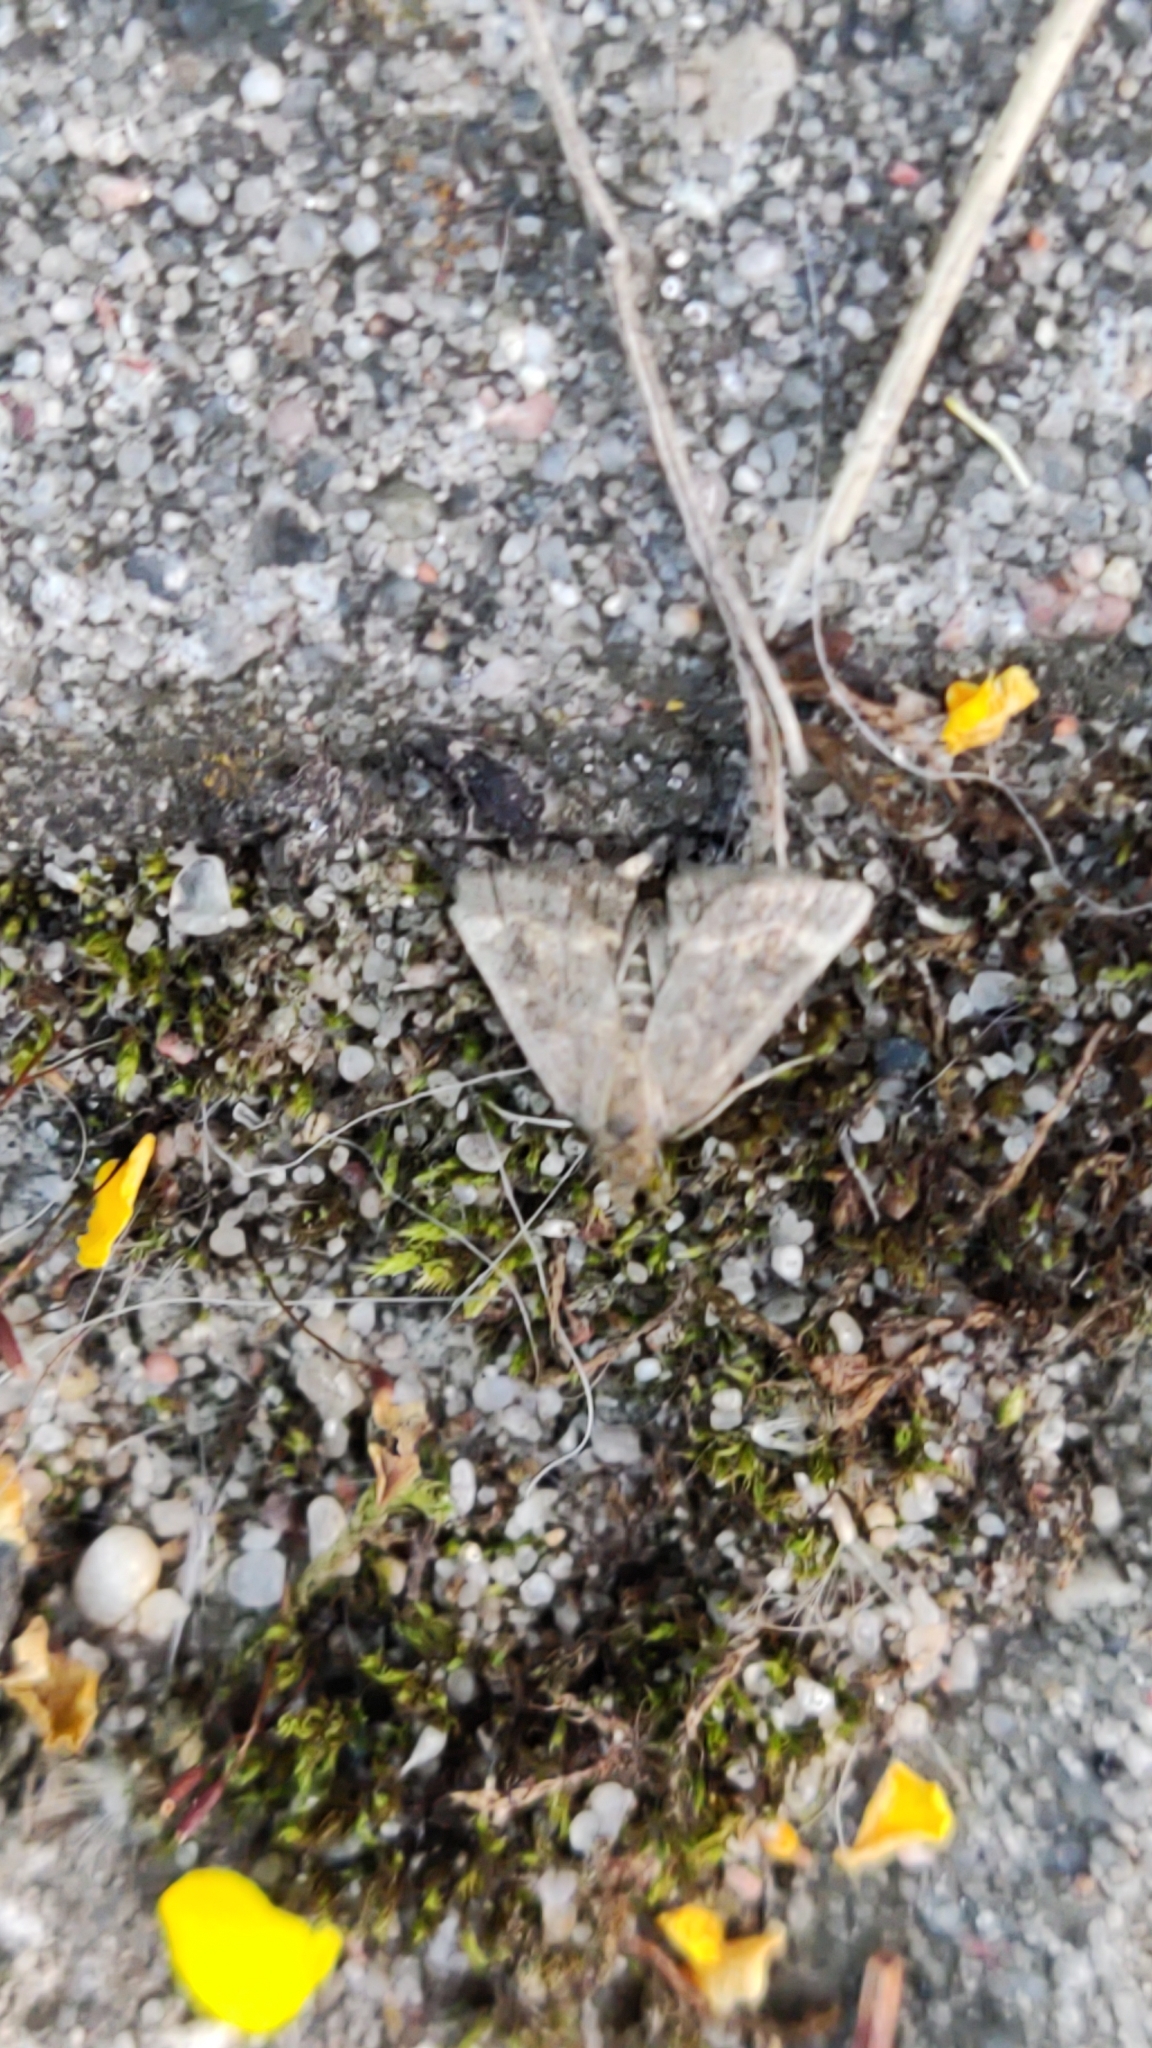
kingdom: Animalia
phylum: Arthropoda
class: Insecta
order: Lepidoptera
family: Crambidae
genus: Pyrausta
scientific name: Pyrausta despicata
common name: Straw-barred pearl
